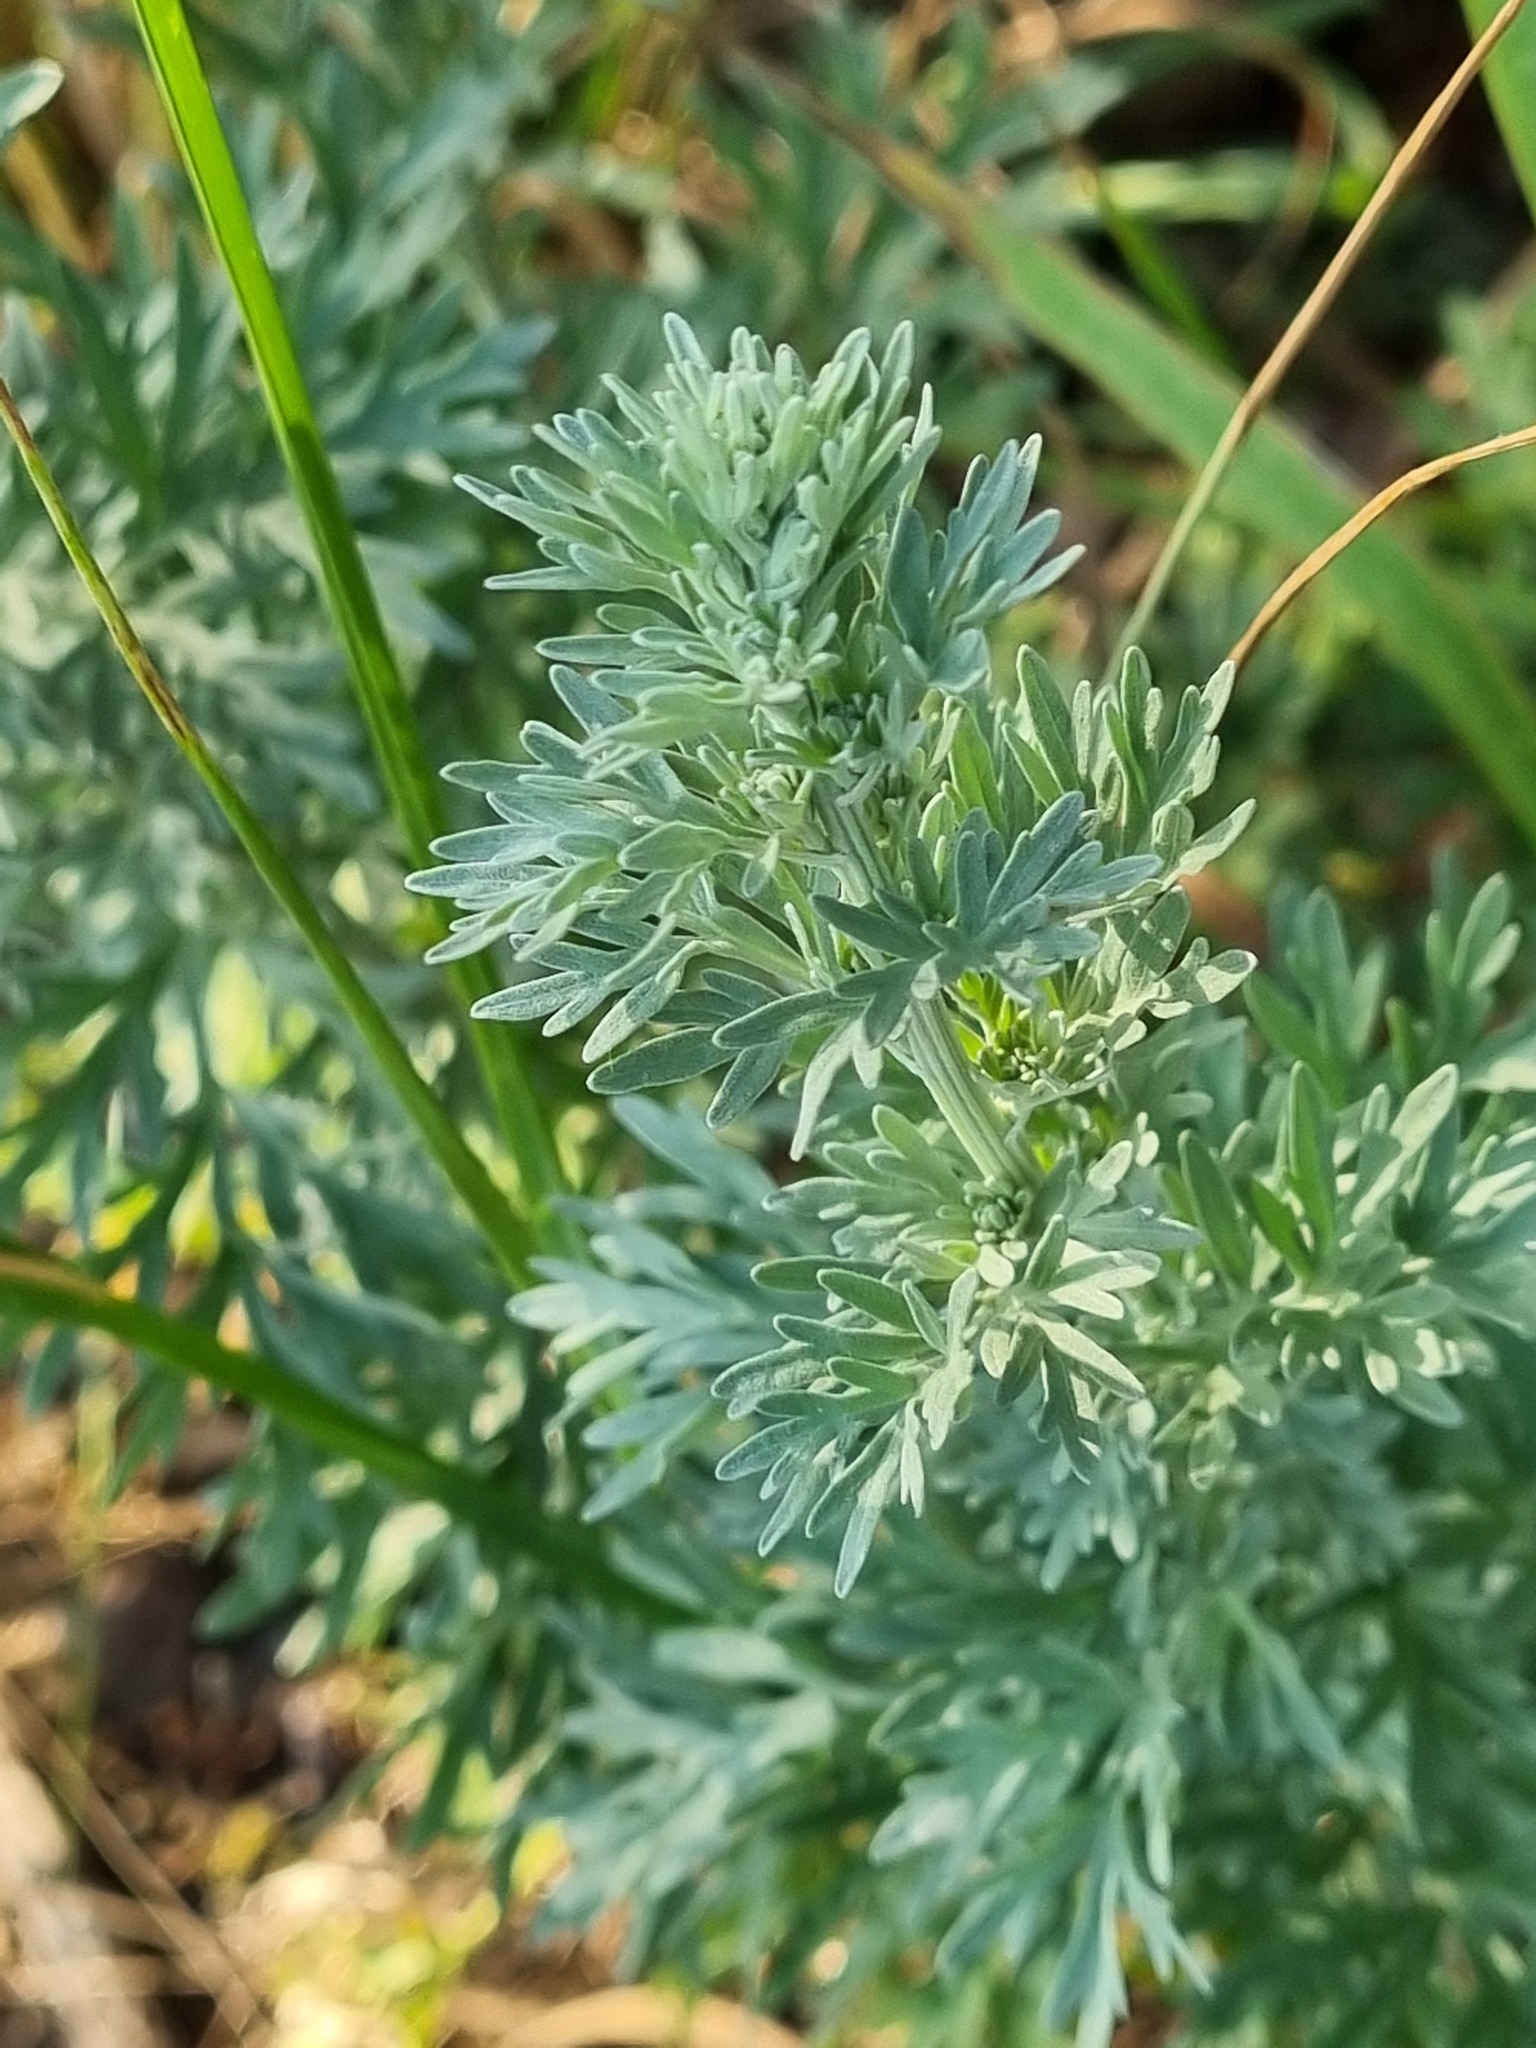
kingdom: Plantae
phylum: Tracheophyta
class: Magnoliopsida
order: Asterales
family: Asteraceae
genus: Artemisia
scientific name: Artemisia absinthium
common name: Wormwood
